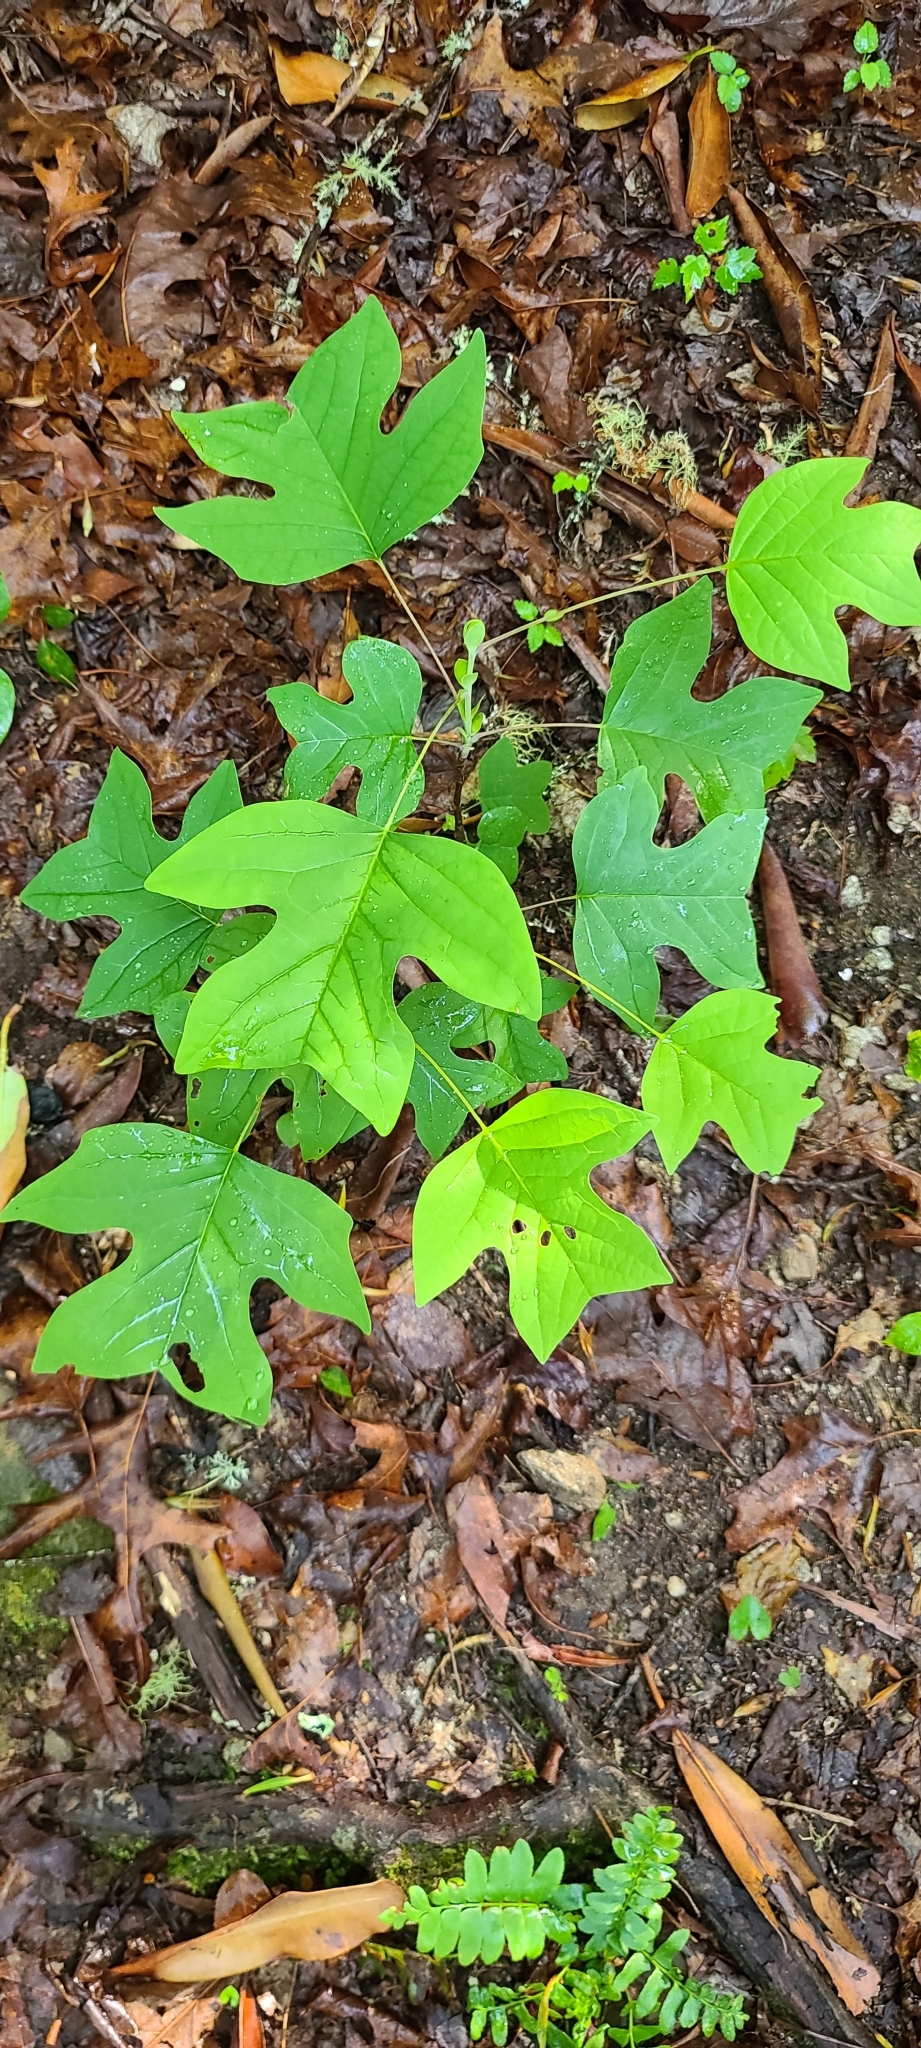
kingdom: Plantae
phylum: Tracheophyta
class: Magnoliopsida
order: Magnoliales
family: Magnoliaceae
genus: Liriodendron
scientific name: Liriodendron tulipifera
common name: Tulip tree
